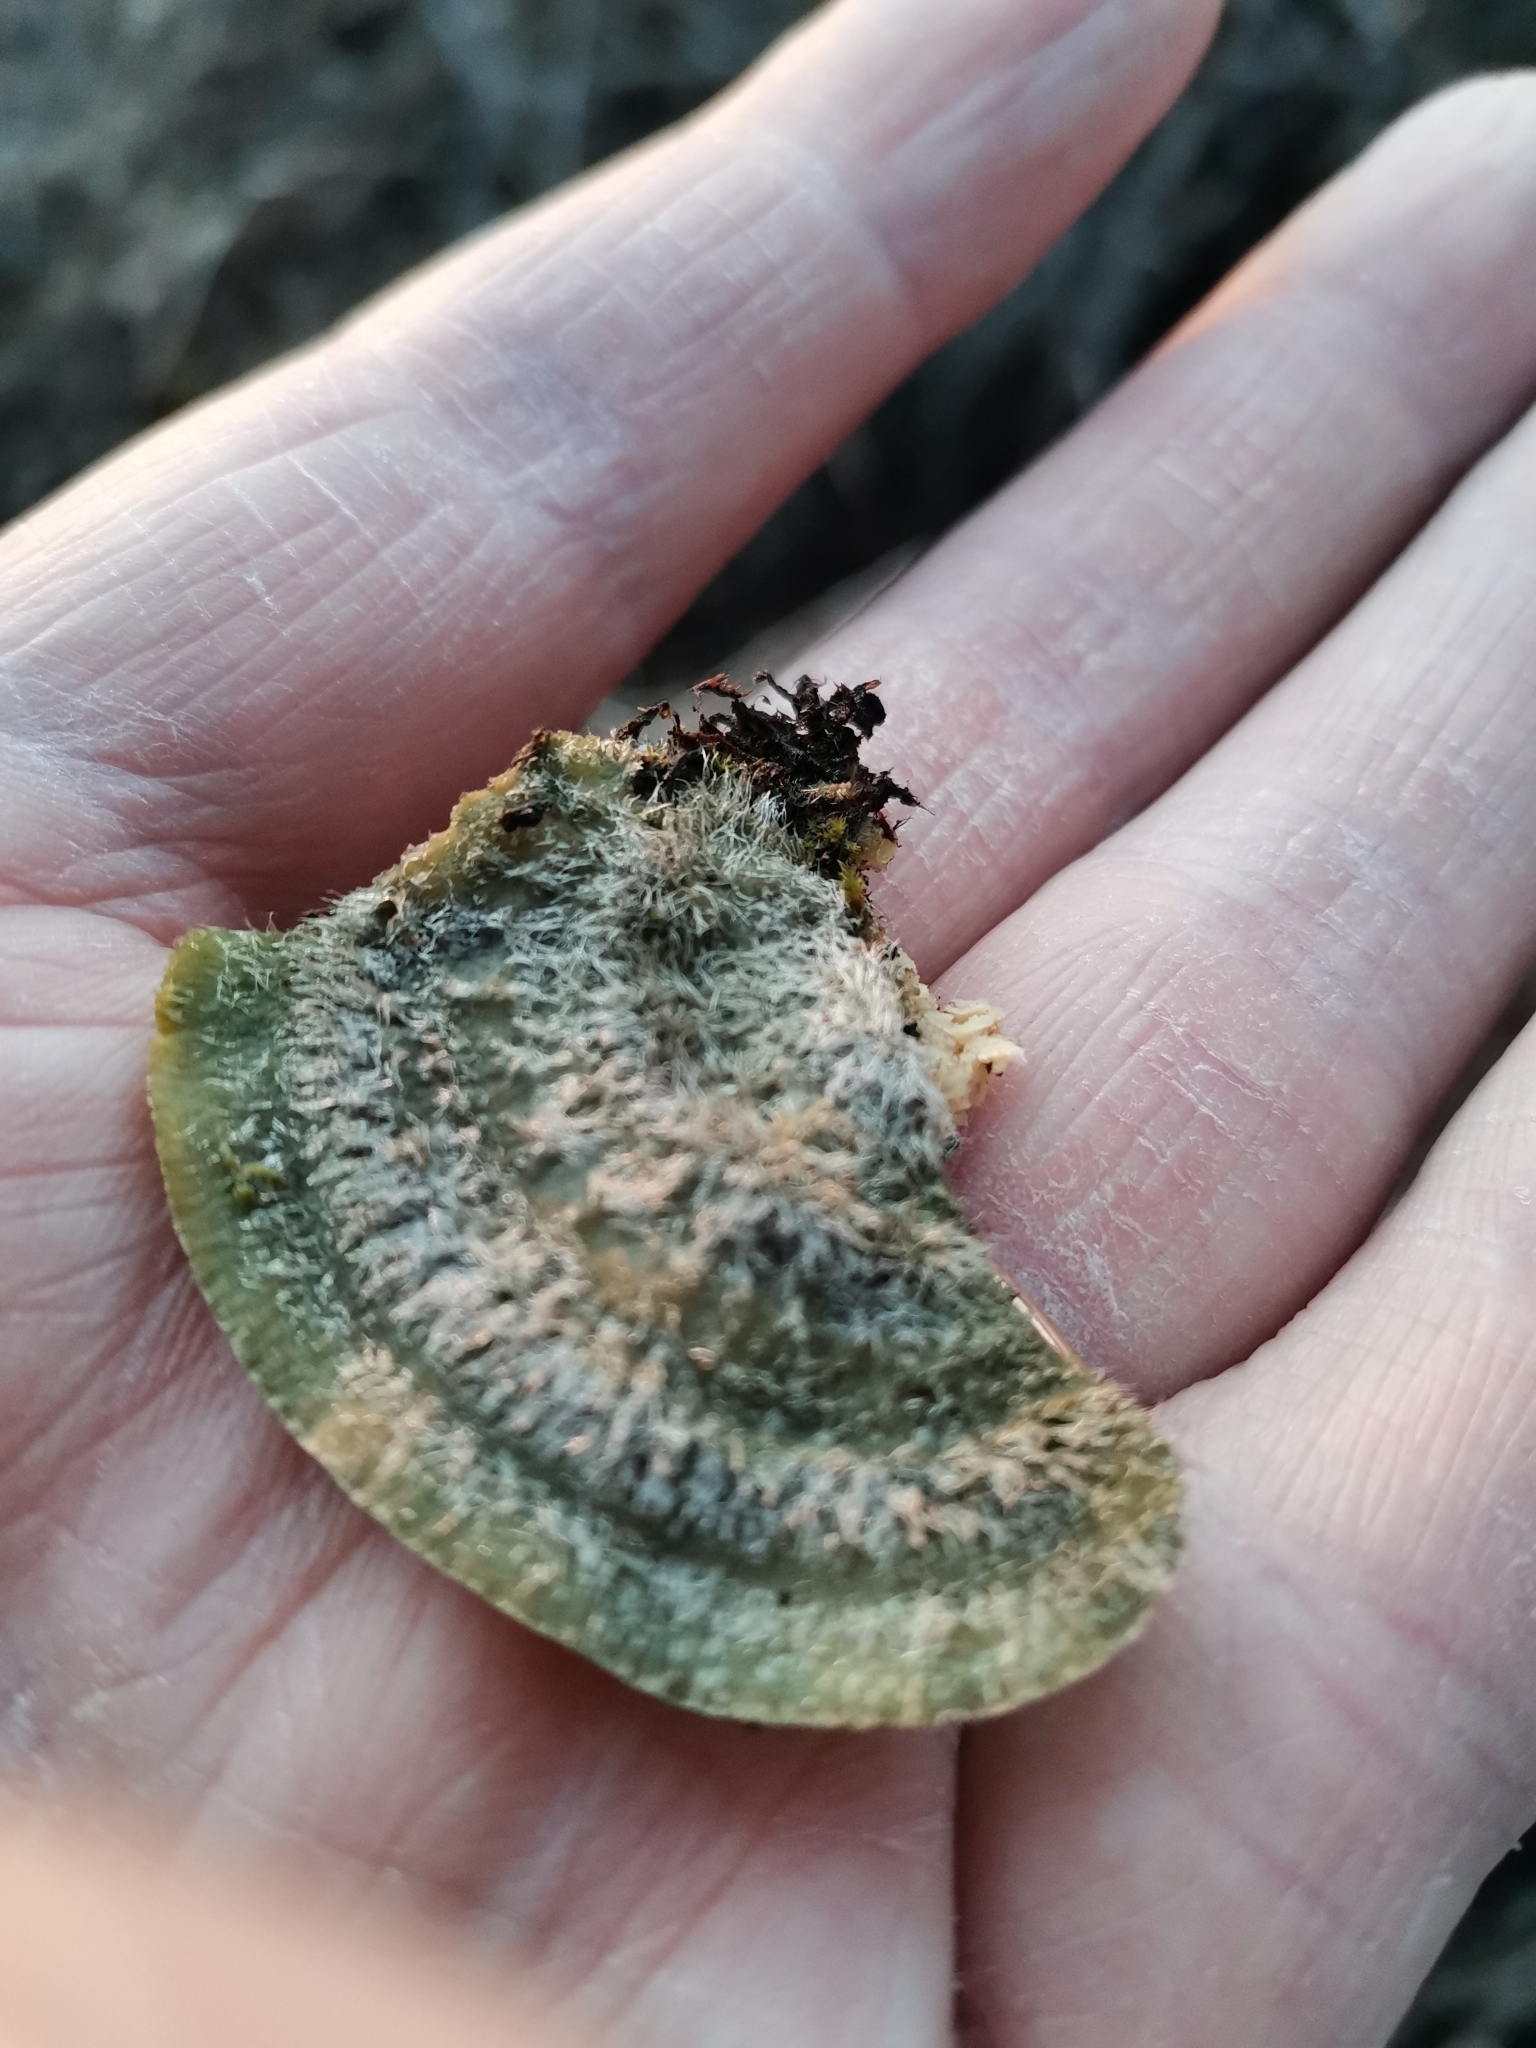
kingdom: Fungi
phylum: Basidiomycota
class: Agaricomycetes
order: Polyporales
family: Polyporaceae
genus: Trametes
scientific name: Trametes hirsuta
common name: Hairy bracket
